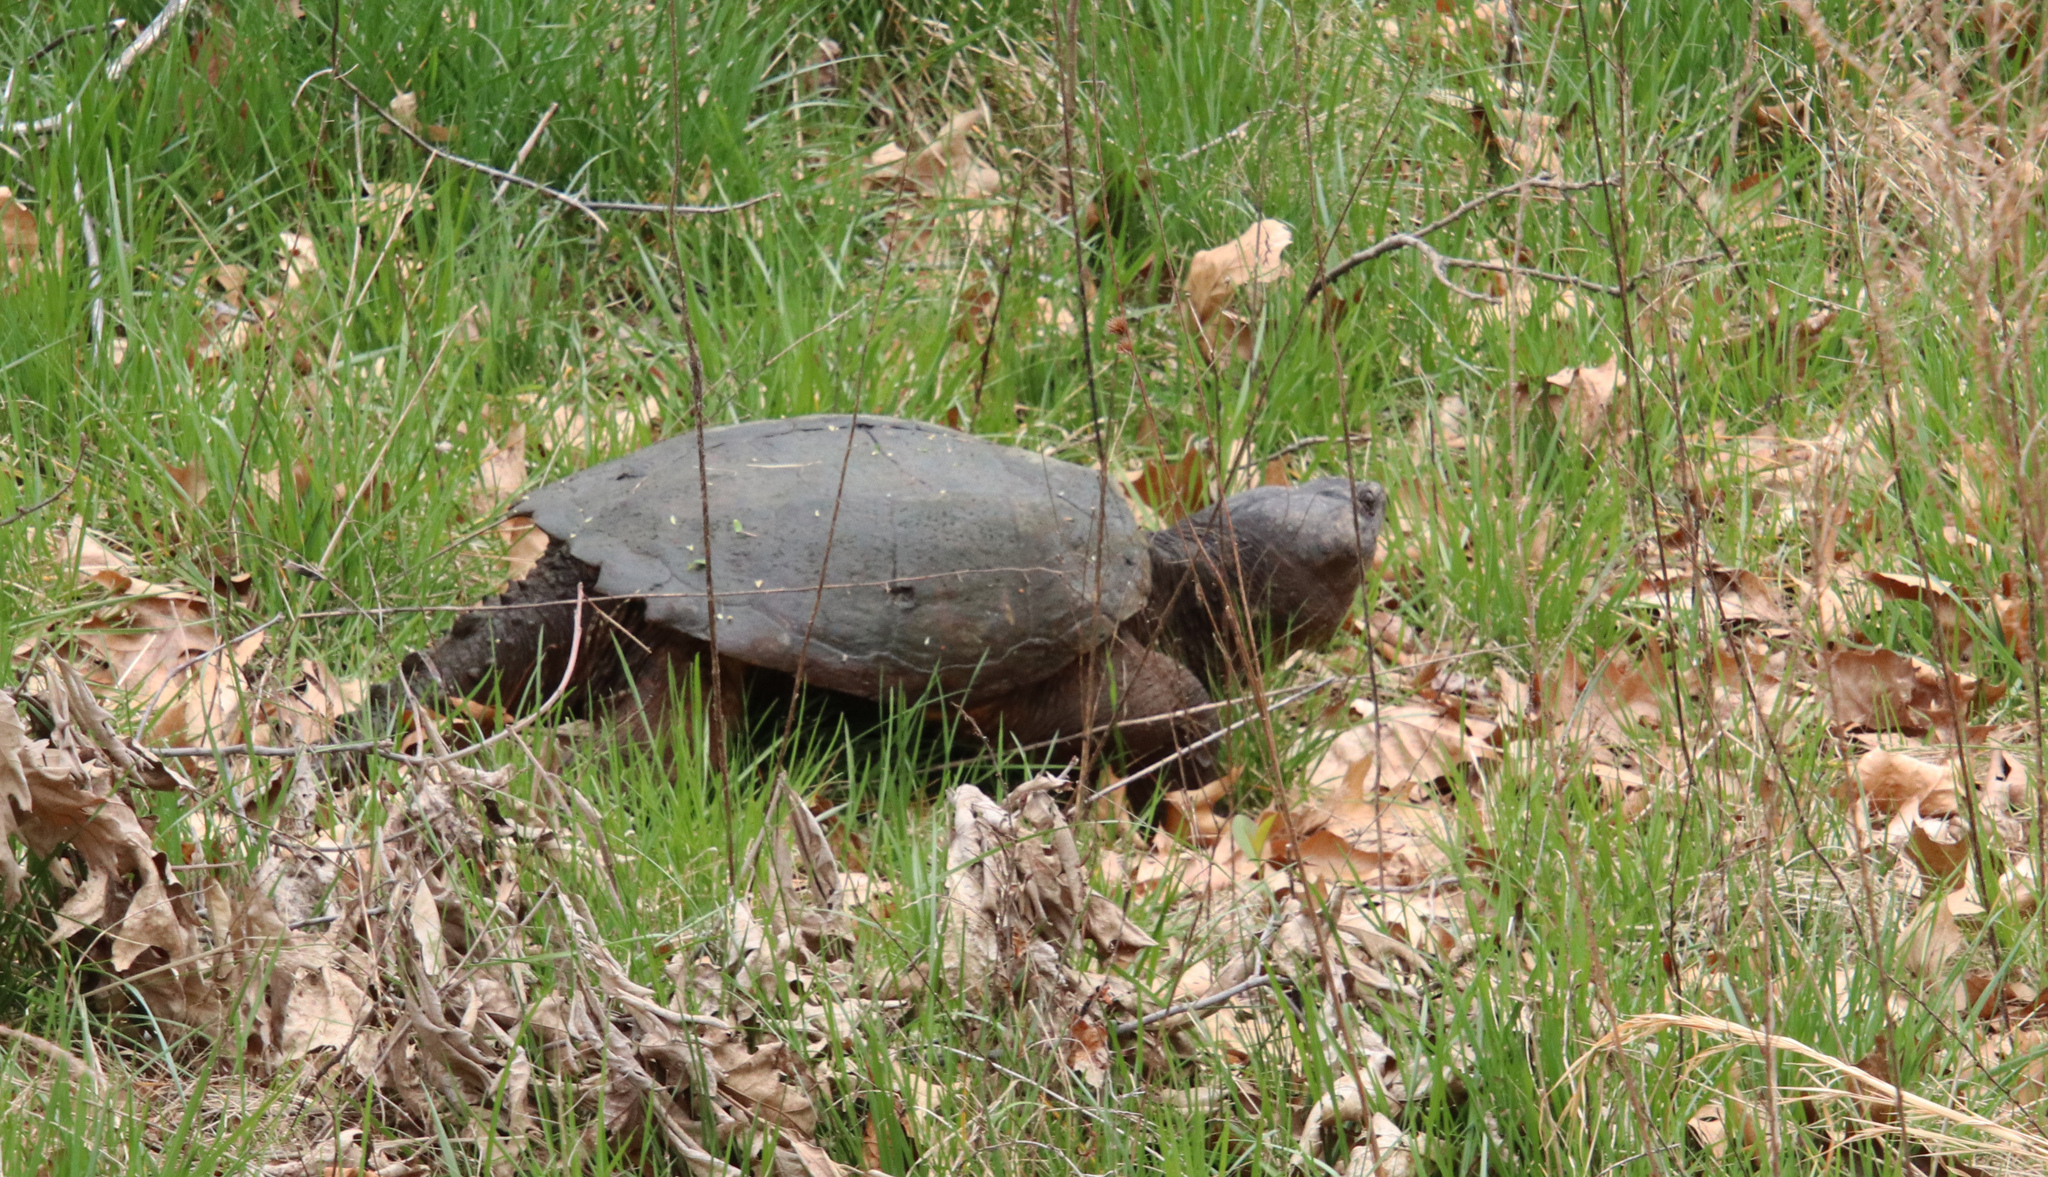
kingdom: Animalia
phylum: Chordata
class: Testudines
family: Chelydridae
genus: Chelydra
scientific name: Chelydra serpentina
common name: Common snapping turtle
